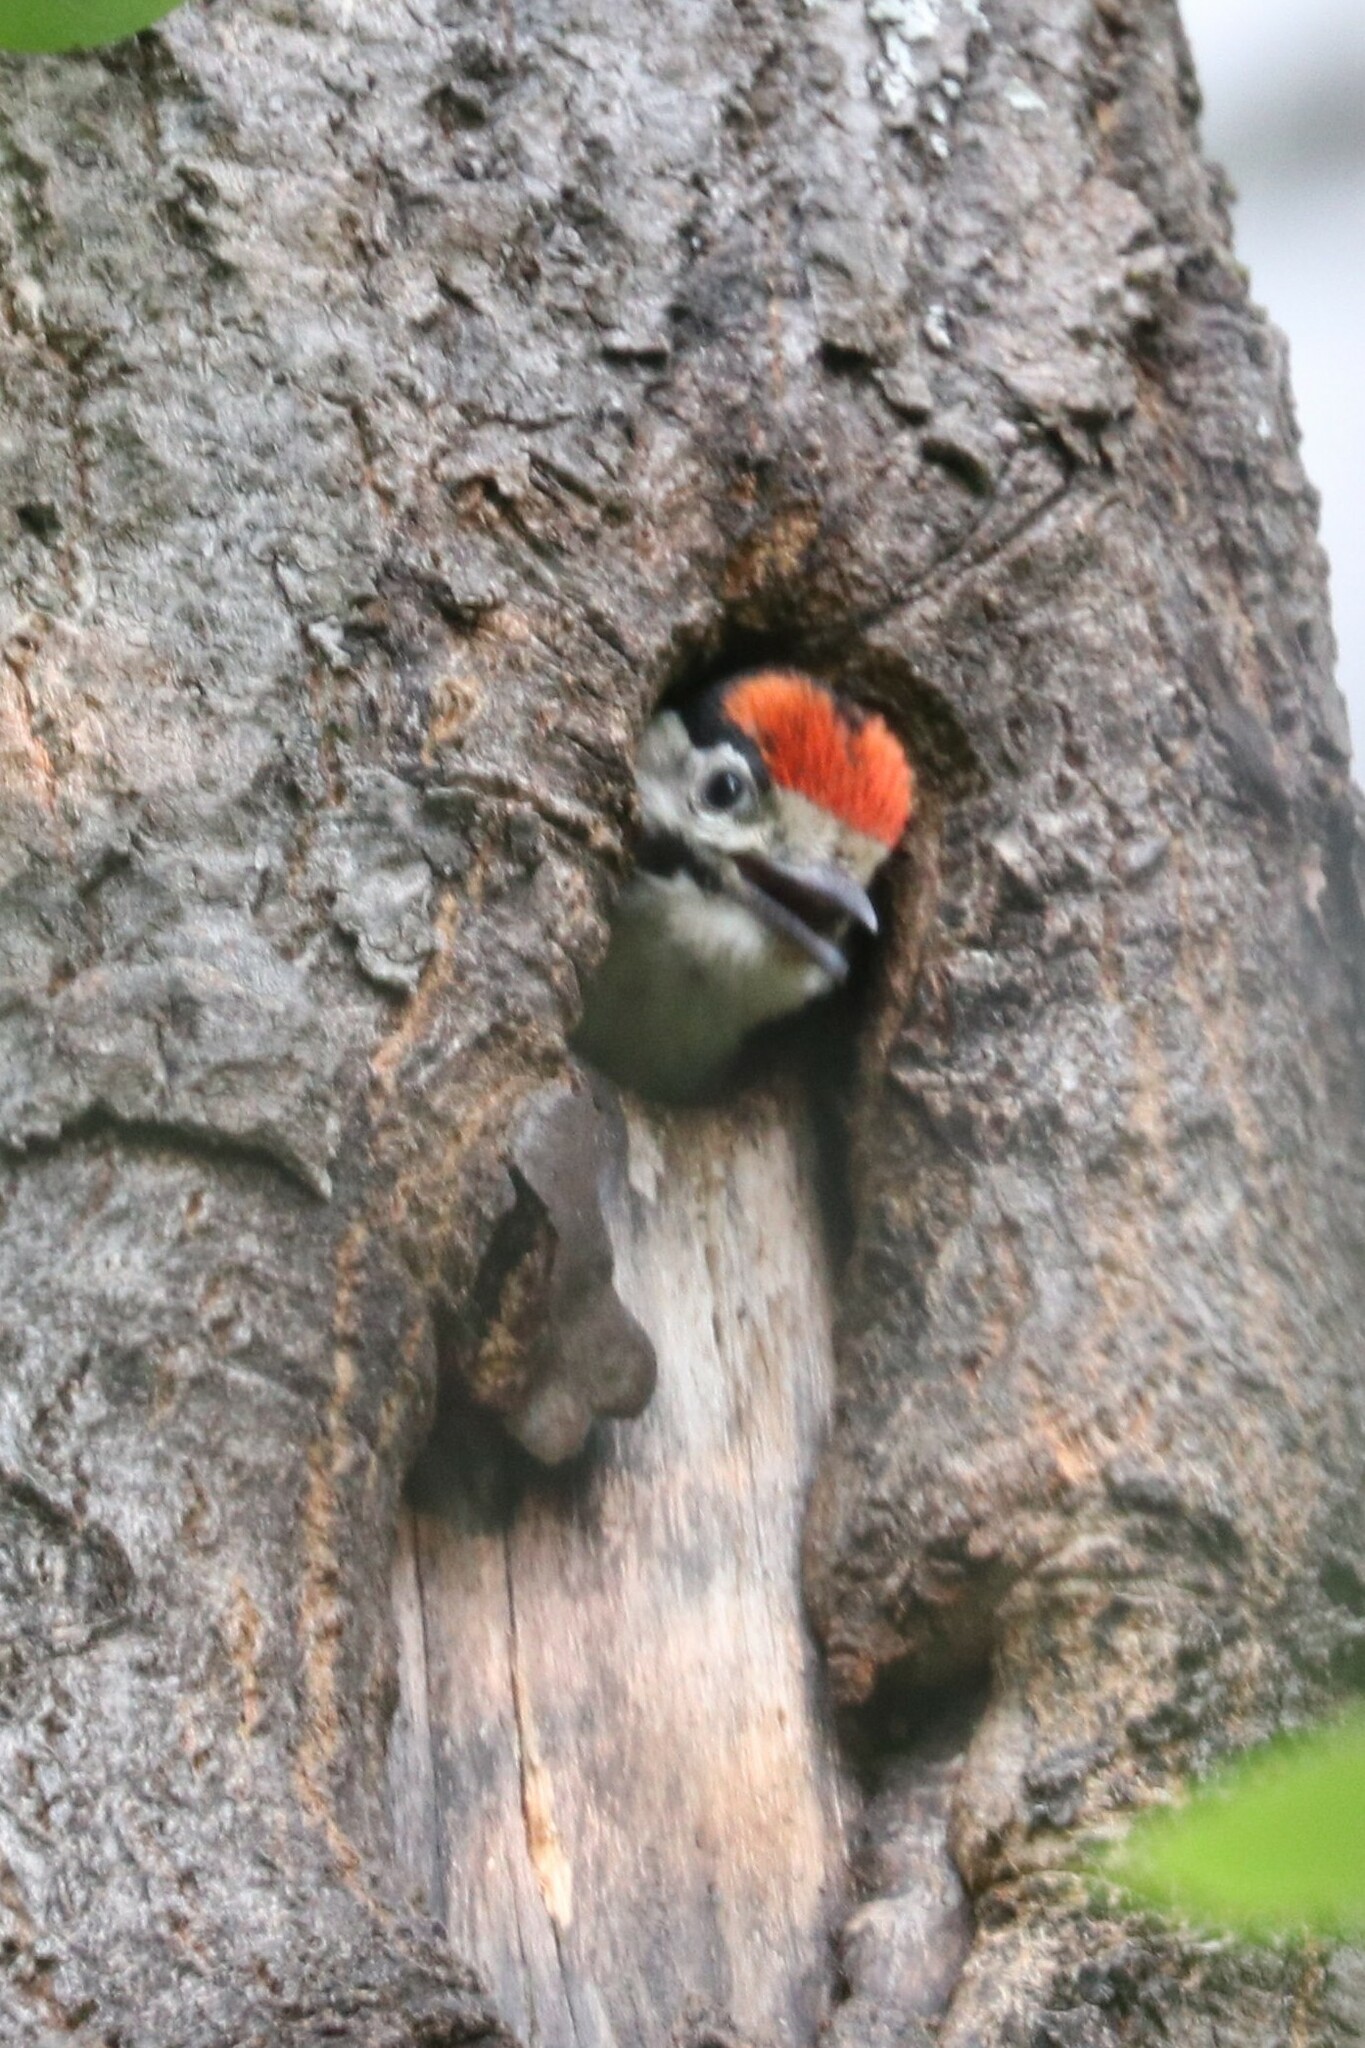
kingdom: Animalia
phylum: Chordata
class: Aves
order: Piciformes
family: Picidae
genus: Dendrocopos
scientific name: Dendrocopos major
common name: Great spotted woodpecker
